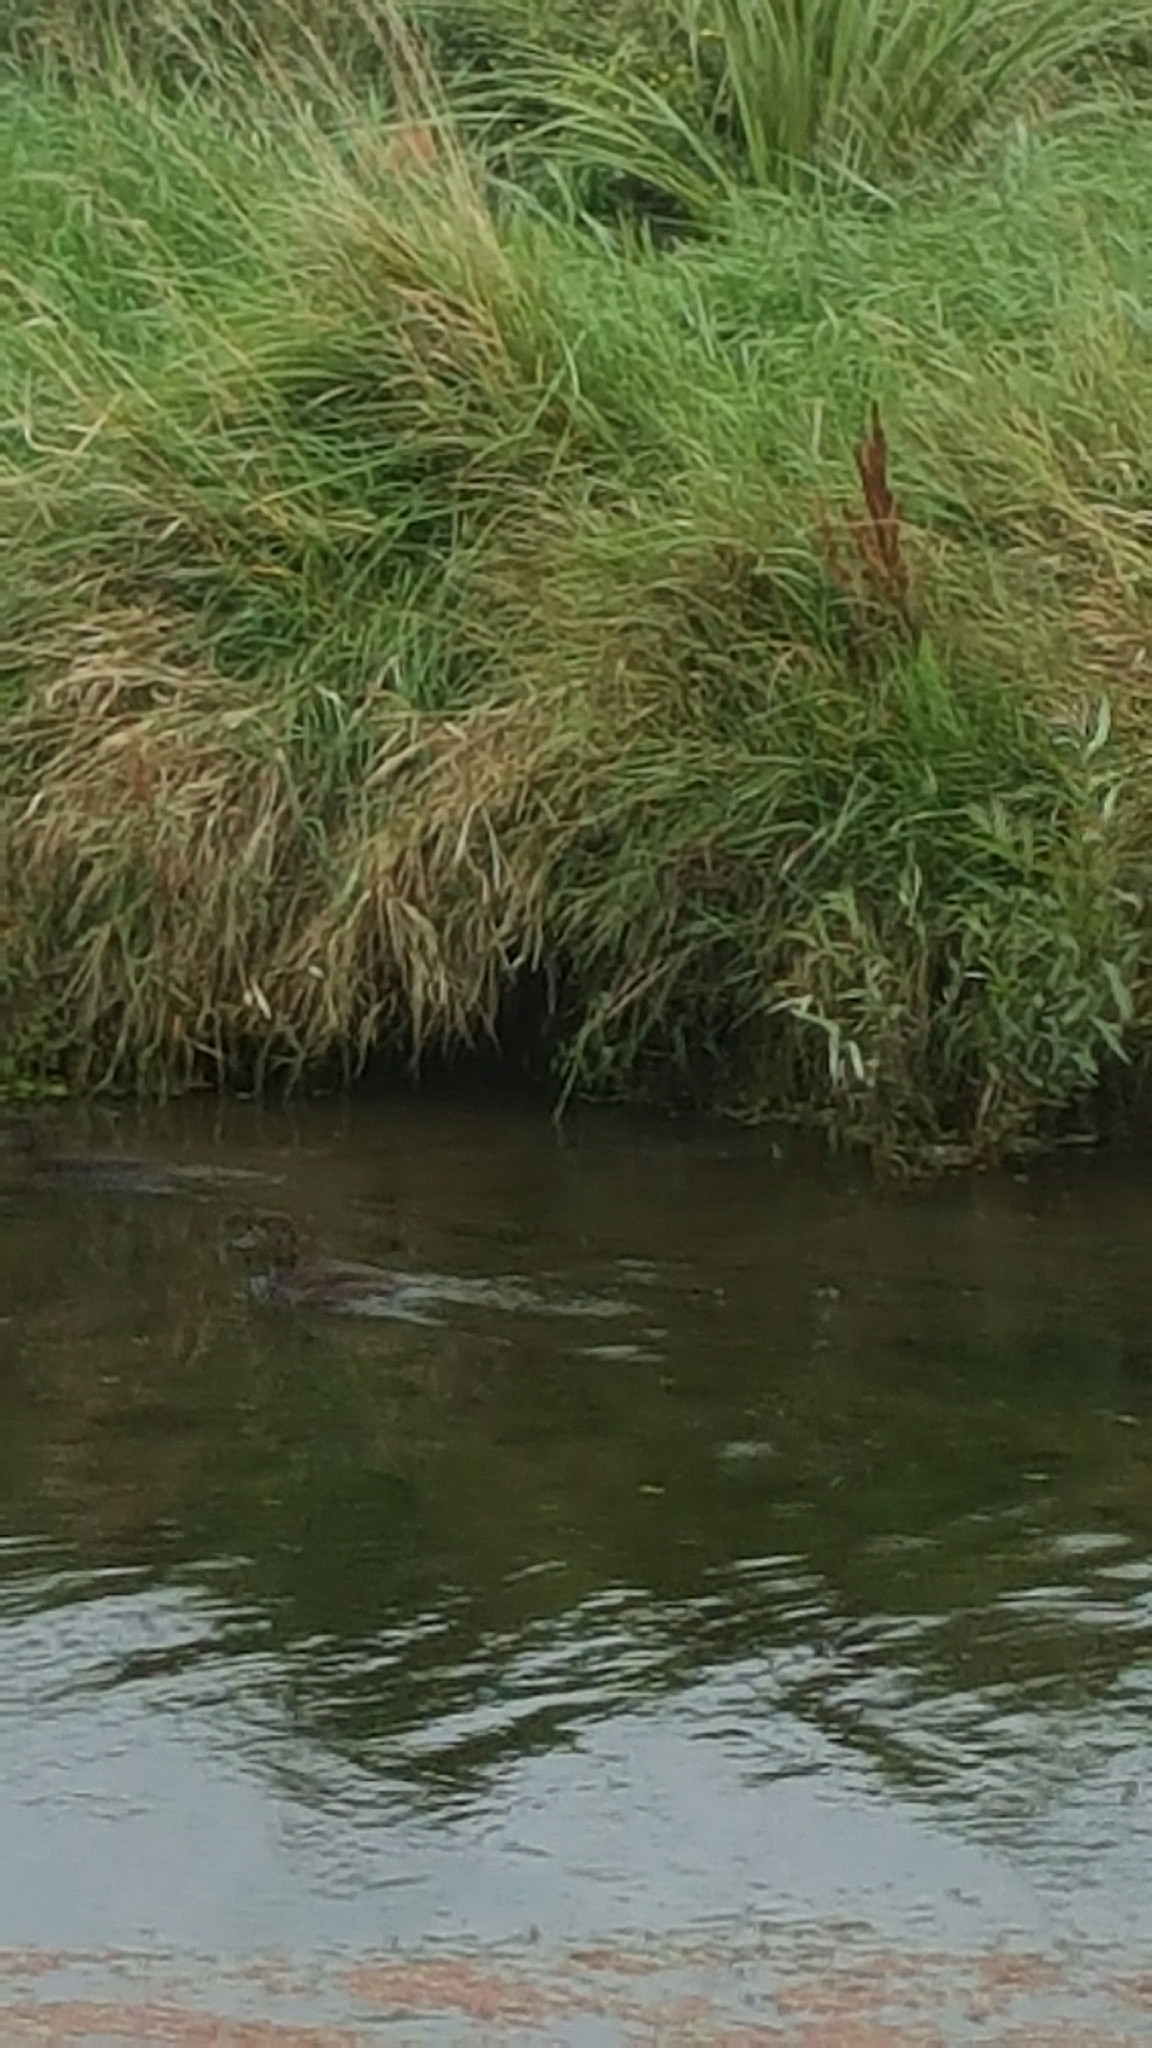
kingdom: Animalia
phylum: Chordata
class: Aves
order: Anseriformes
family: Anatidae
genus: Aythya
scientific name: Aythya novaeseelandiae
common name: New zealand scaup
